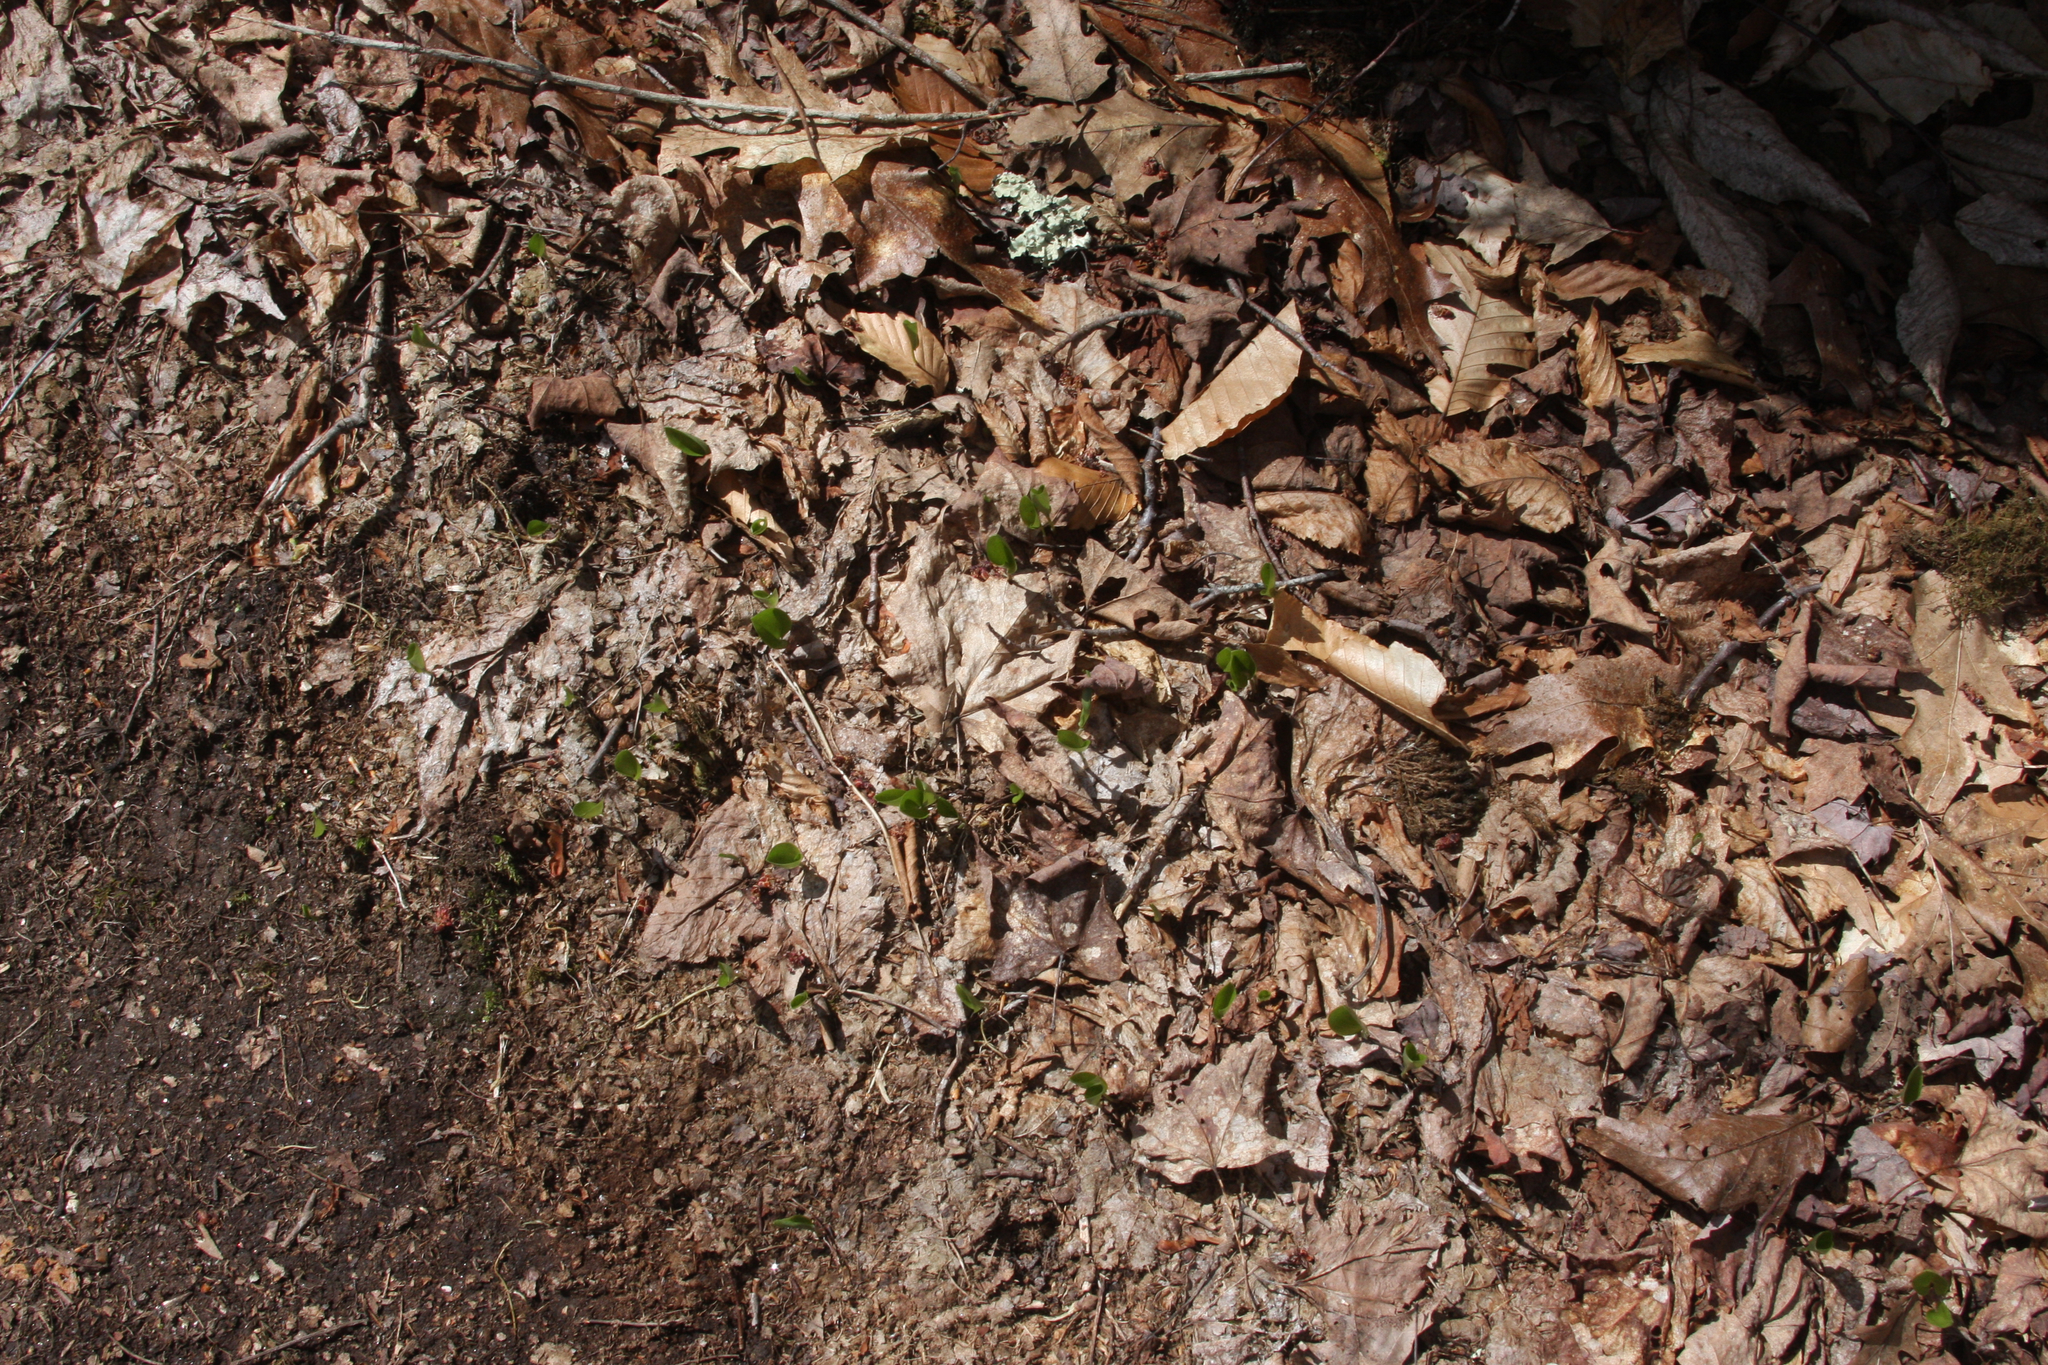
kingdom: Plantae
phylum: Tracheophyta
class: Liliopsida
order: Asparagales
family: Asparagaceae
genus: Maianthemum
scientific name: Maianthemum canadense
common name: False lily-of-the-valley
